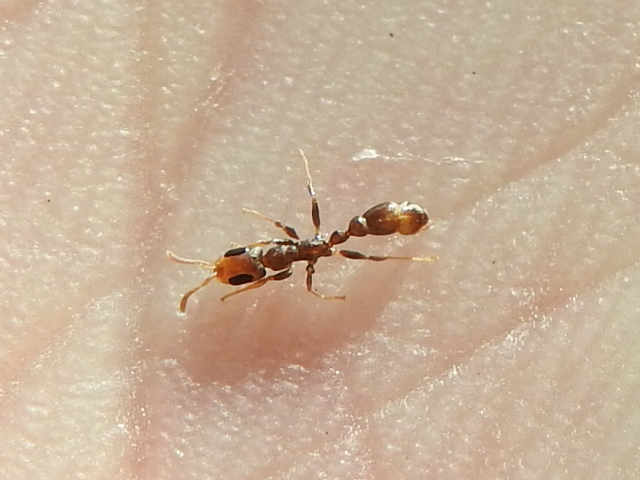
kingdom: Animalia
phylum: Arthropoda
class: Insecta
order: Hymenoptera
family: Formicidae
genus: Pseudomyrmex
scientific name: Pseudomyrmex cubaensis
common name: Ant
